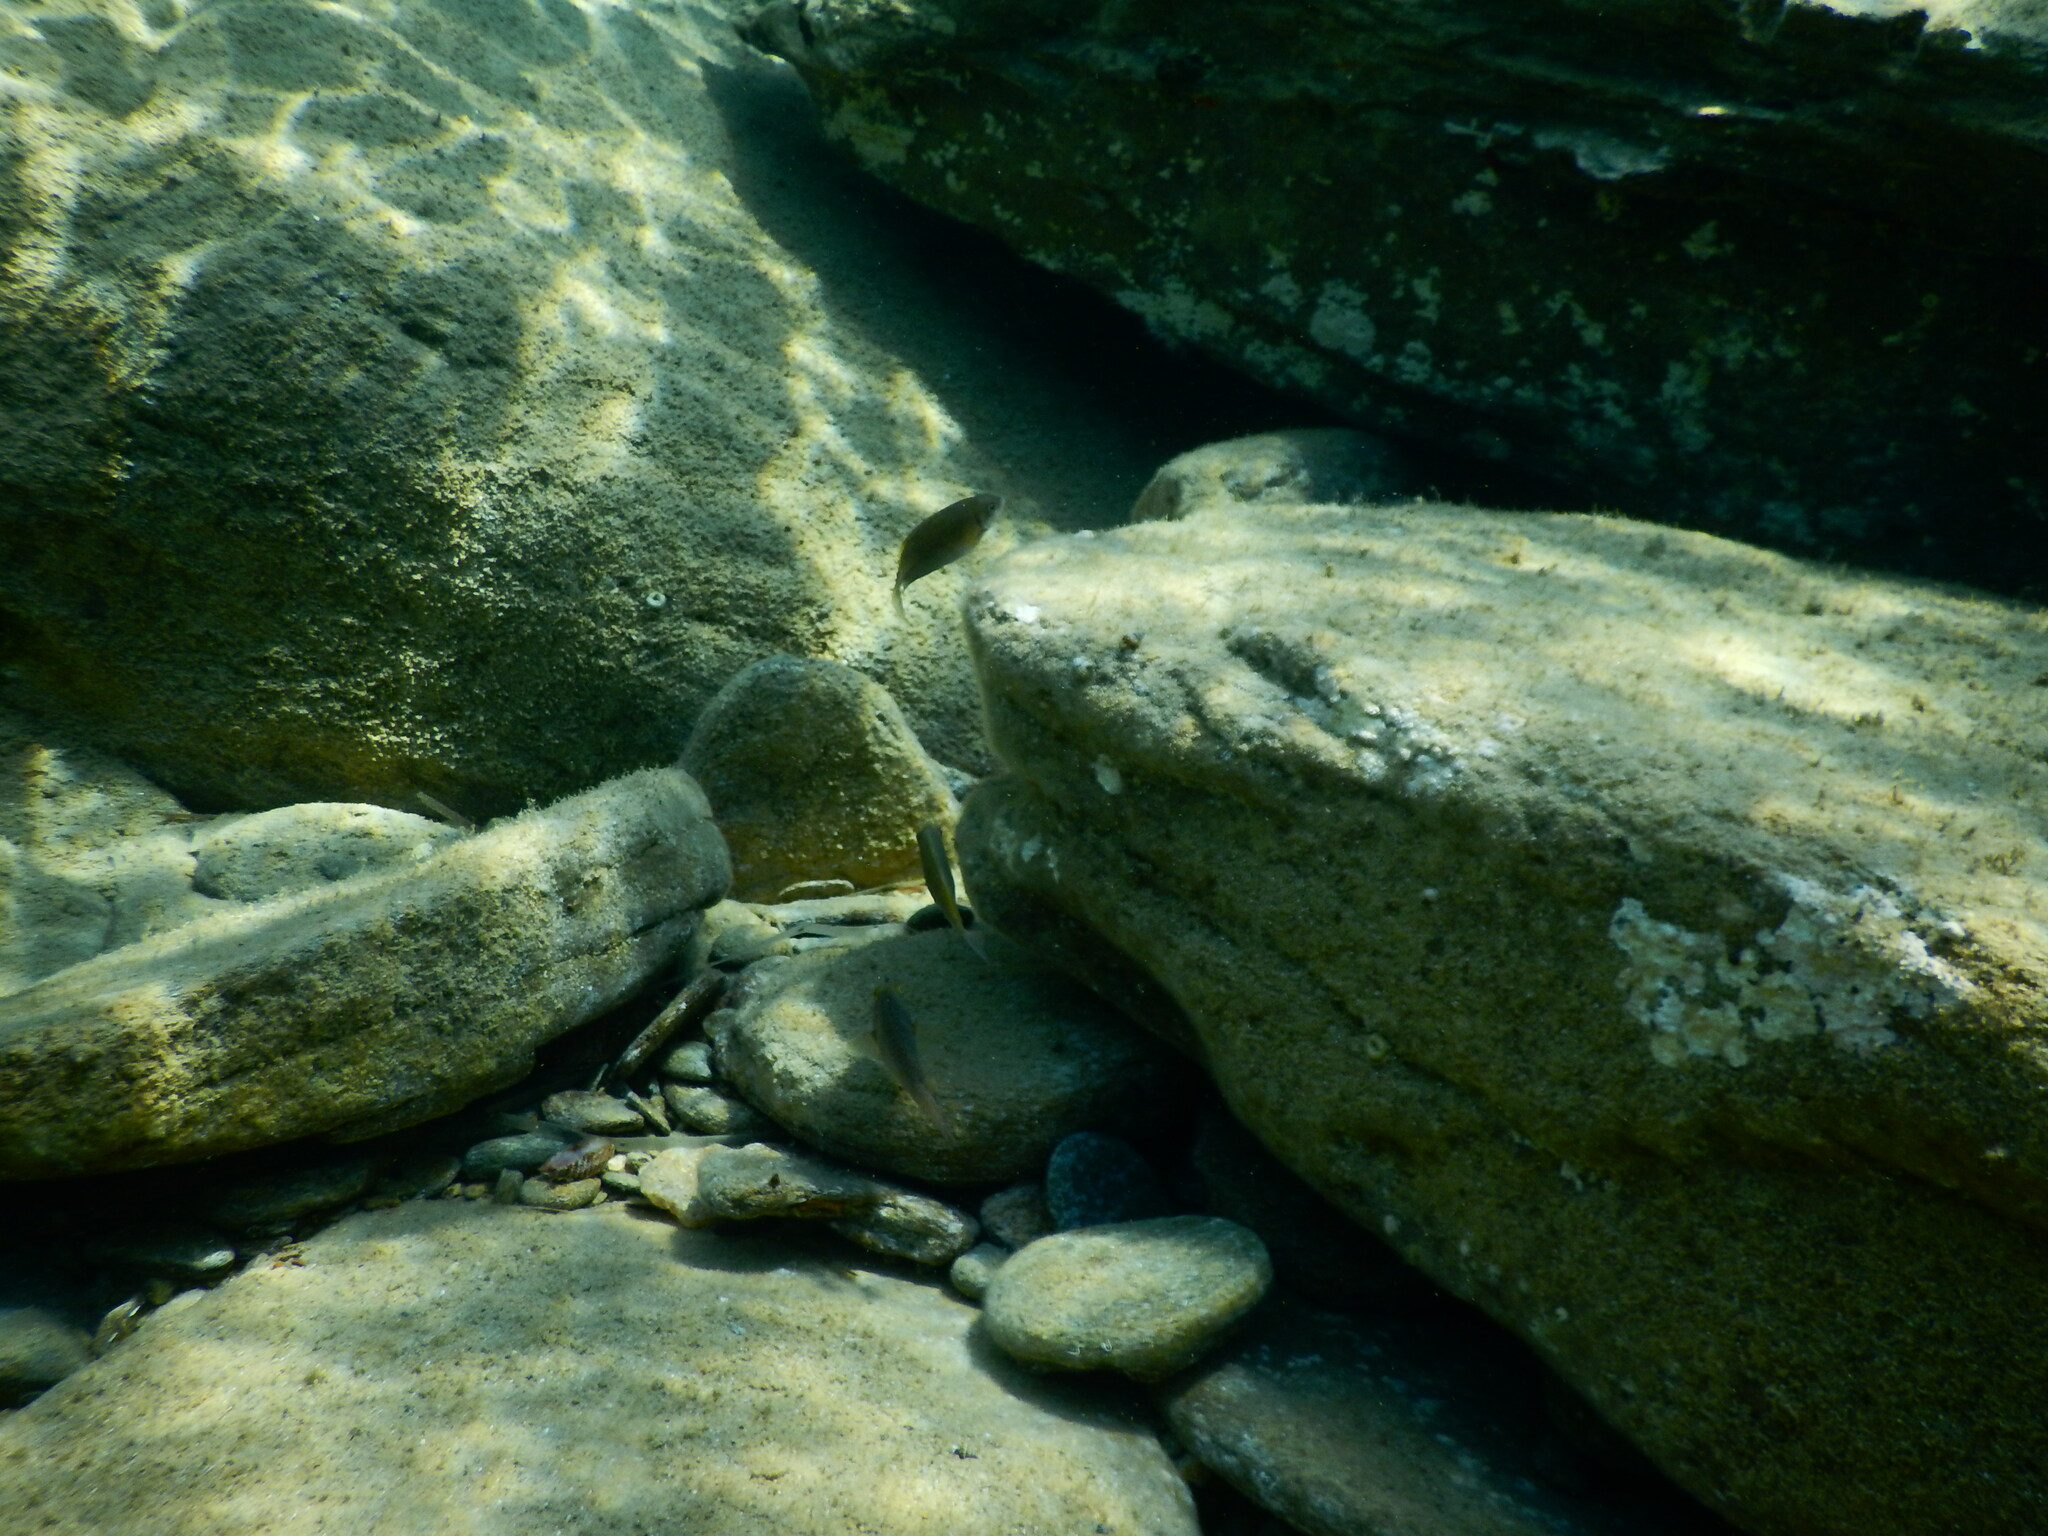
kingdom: Animalia
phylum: Chordata
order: Perciformes
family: Siganidae
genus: Siganus
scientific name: Siganus
